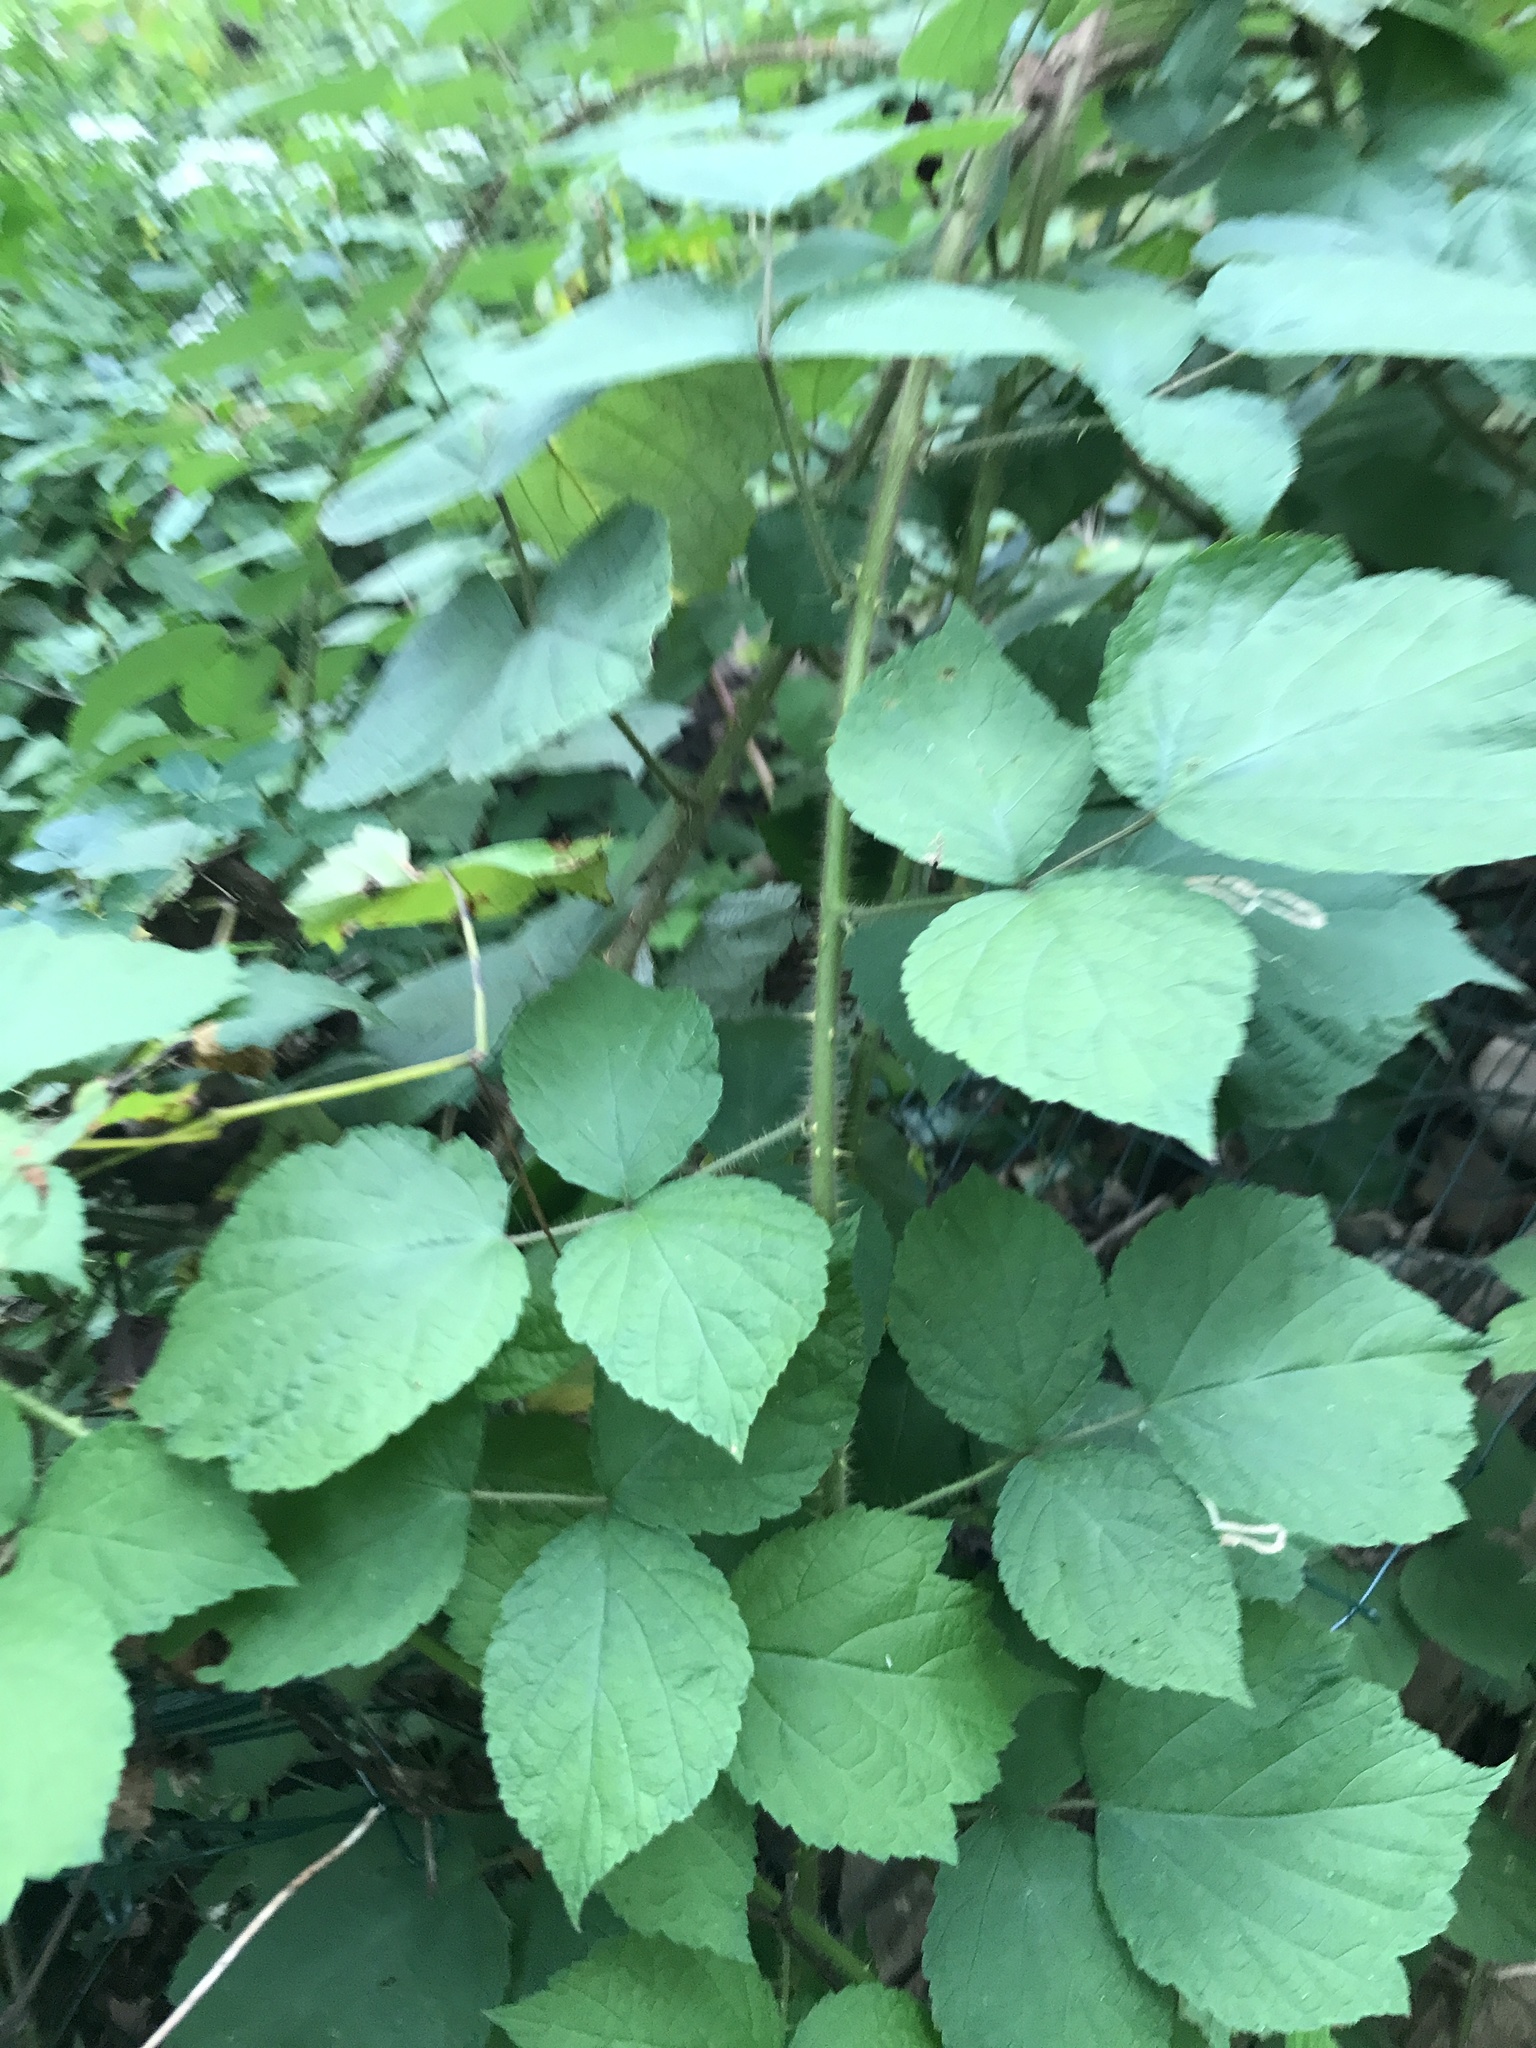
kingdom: Plantae
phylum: Tracheophyta
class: Magnoliopsida
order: Rosales
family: Rosaceae
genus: Rubus
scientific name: Rubus phoenicolasius
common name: Japanese wineberry
